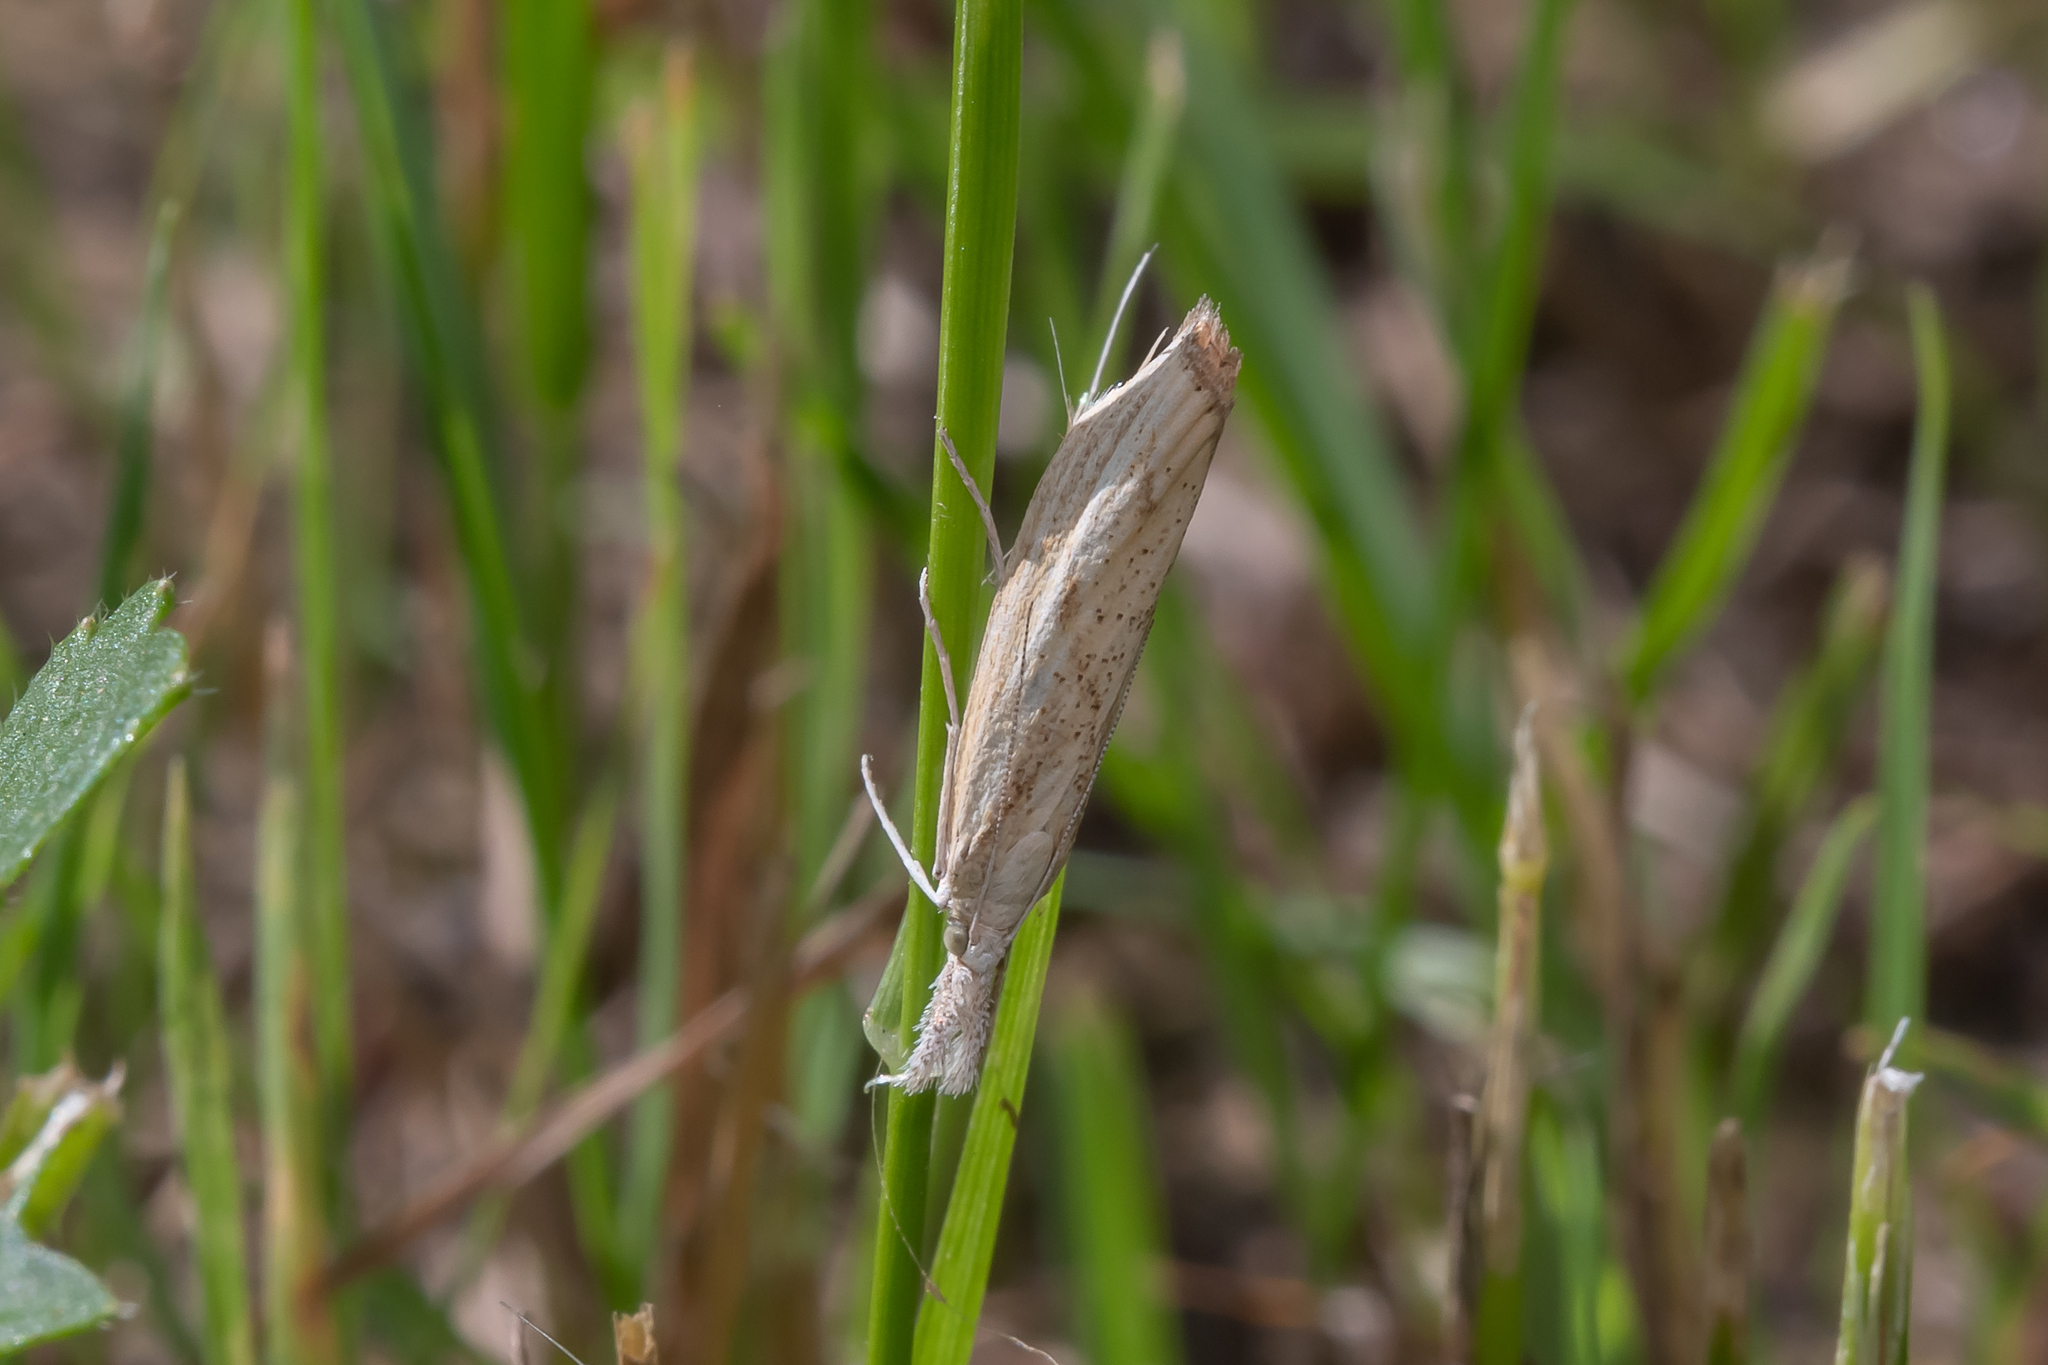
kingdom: Animalia
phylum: Arthropoda
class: Insecta
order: Lepidoptera
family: Crambidae
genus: Agriphila
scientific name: Agriphila inquinatella
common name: Barred grass-veneer
